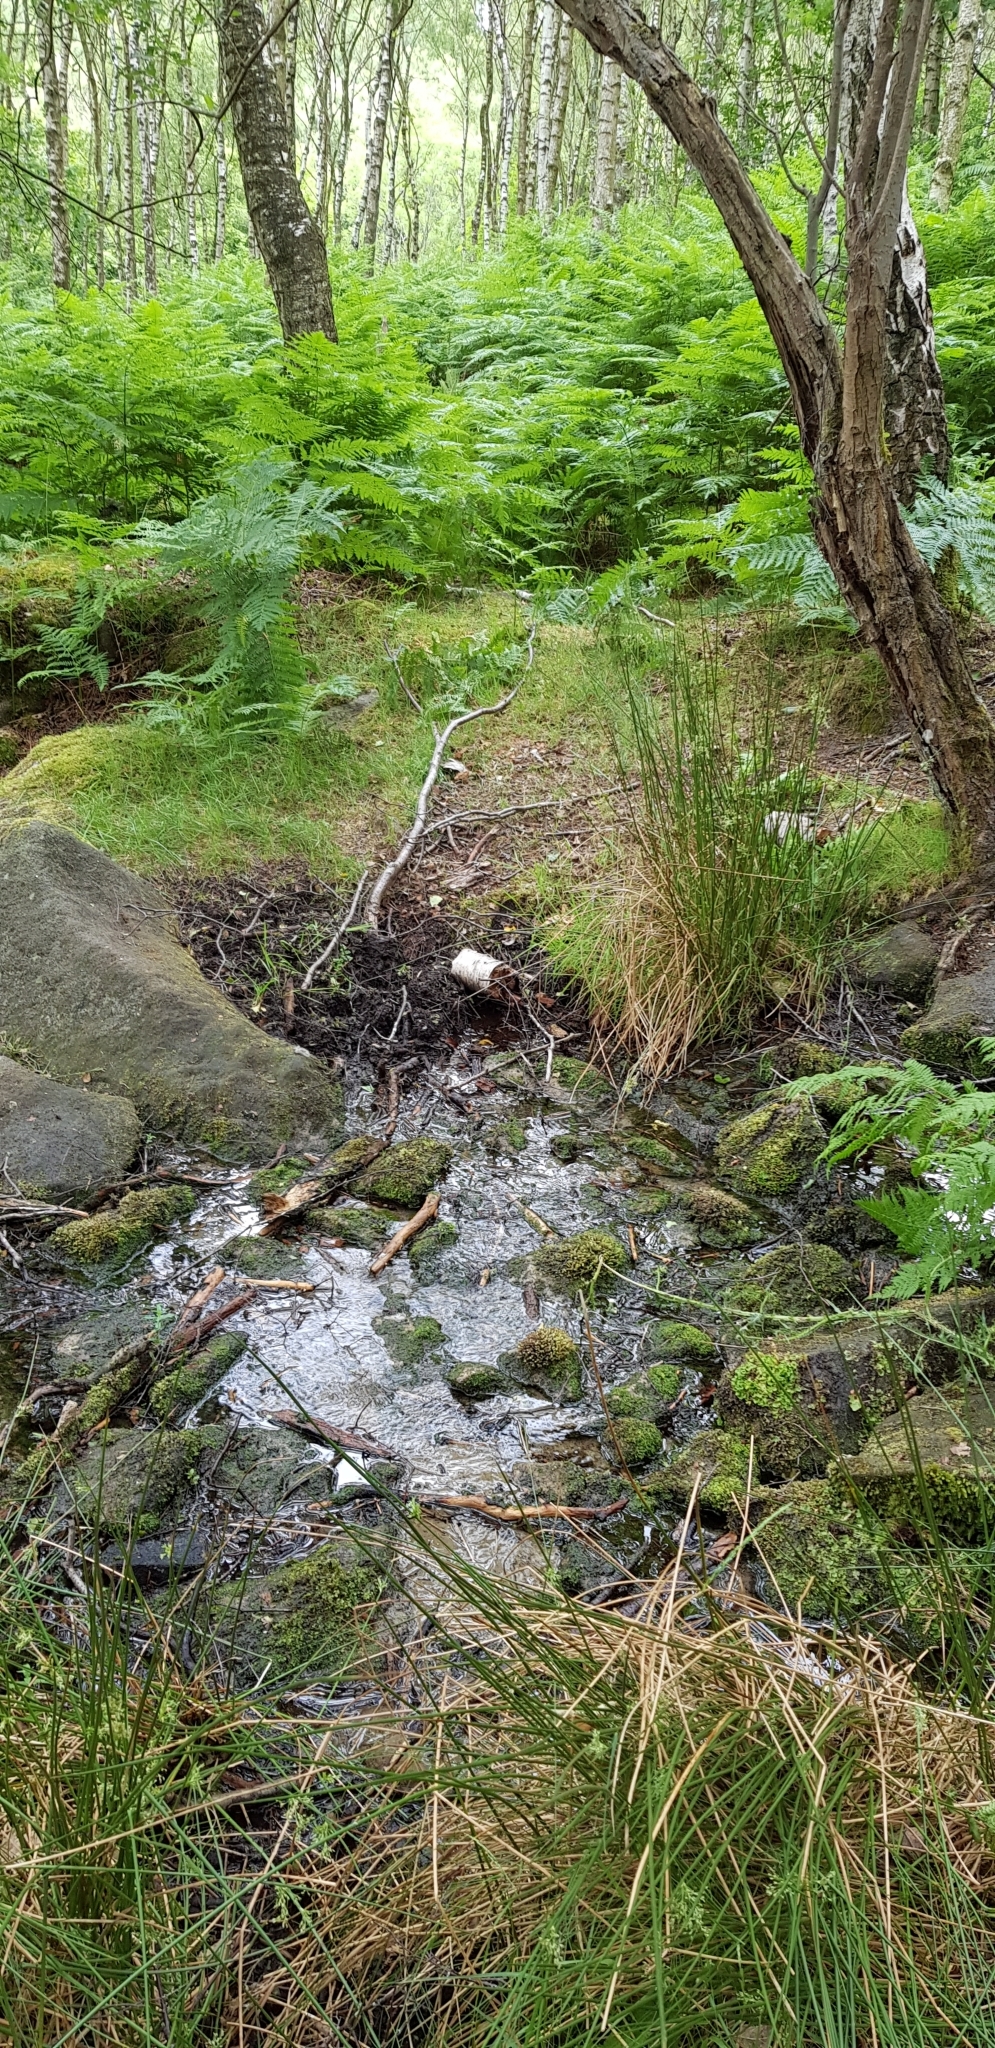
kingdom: Plantae
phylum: Bryophyta
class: Bryopsida
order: Hookeriales
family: Hookeriaceae
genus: Hookeria
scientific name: Hookeria lucens
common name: Shining hookeria
